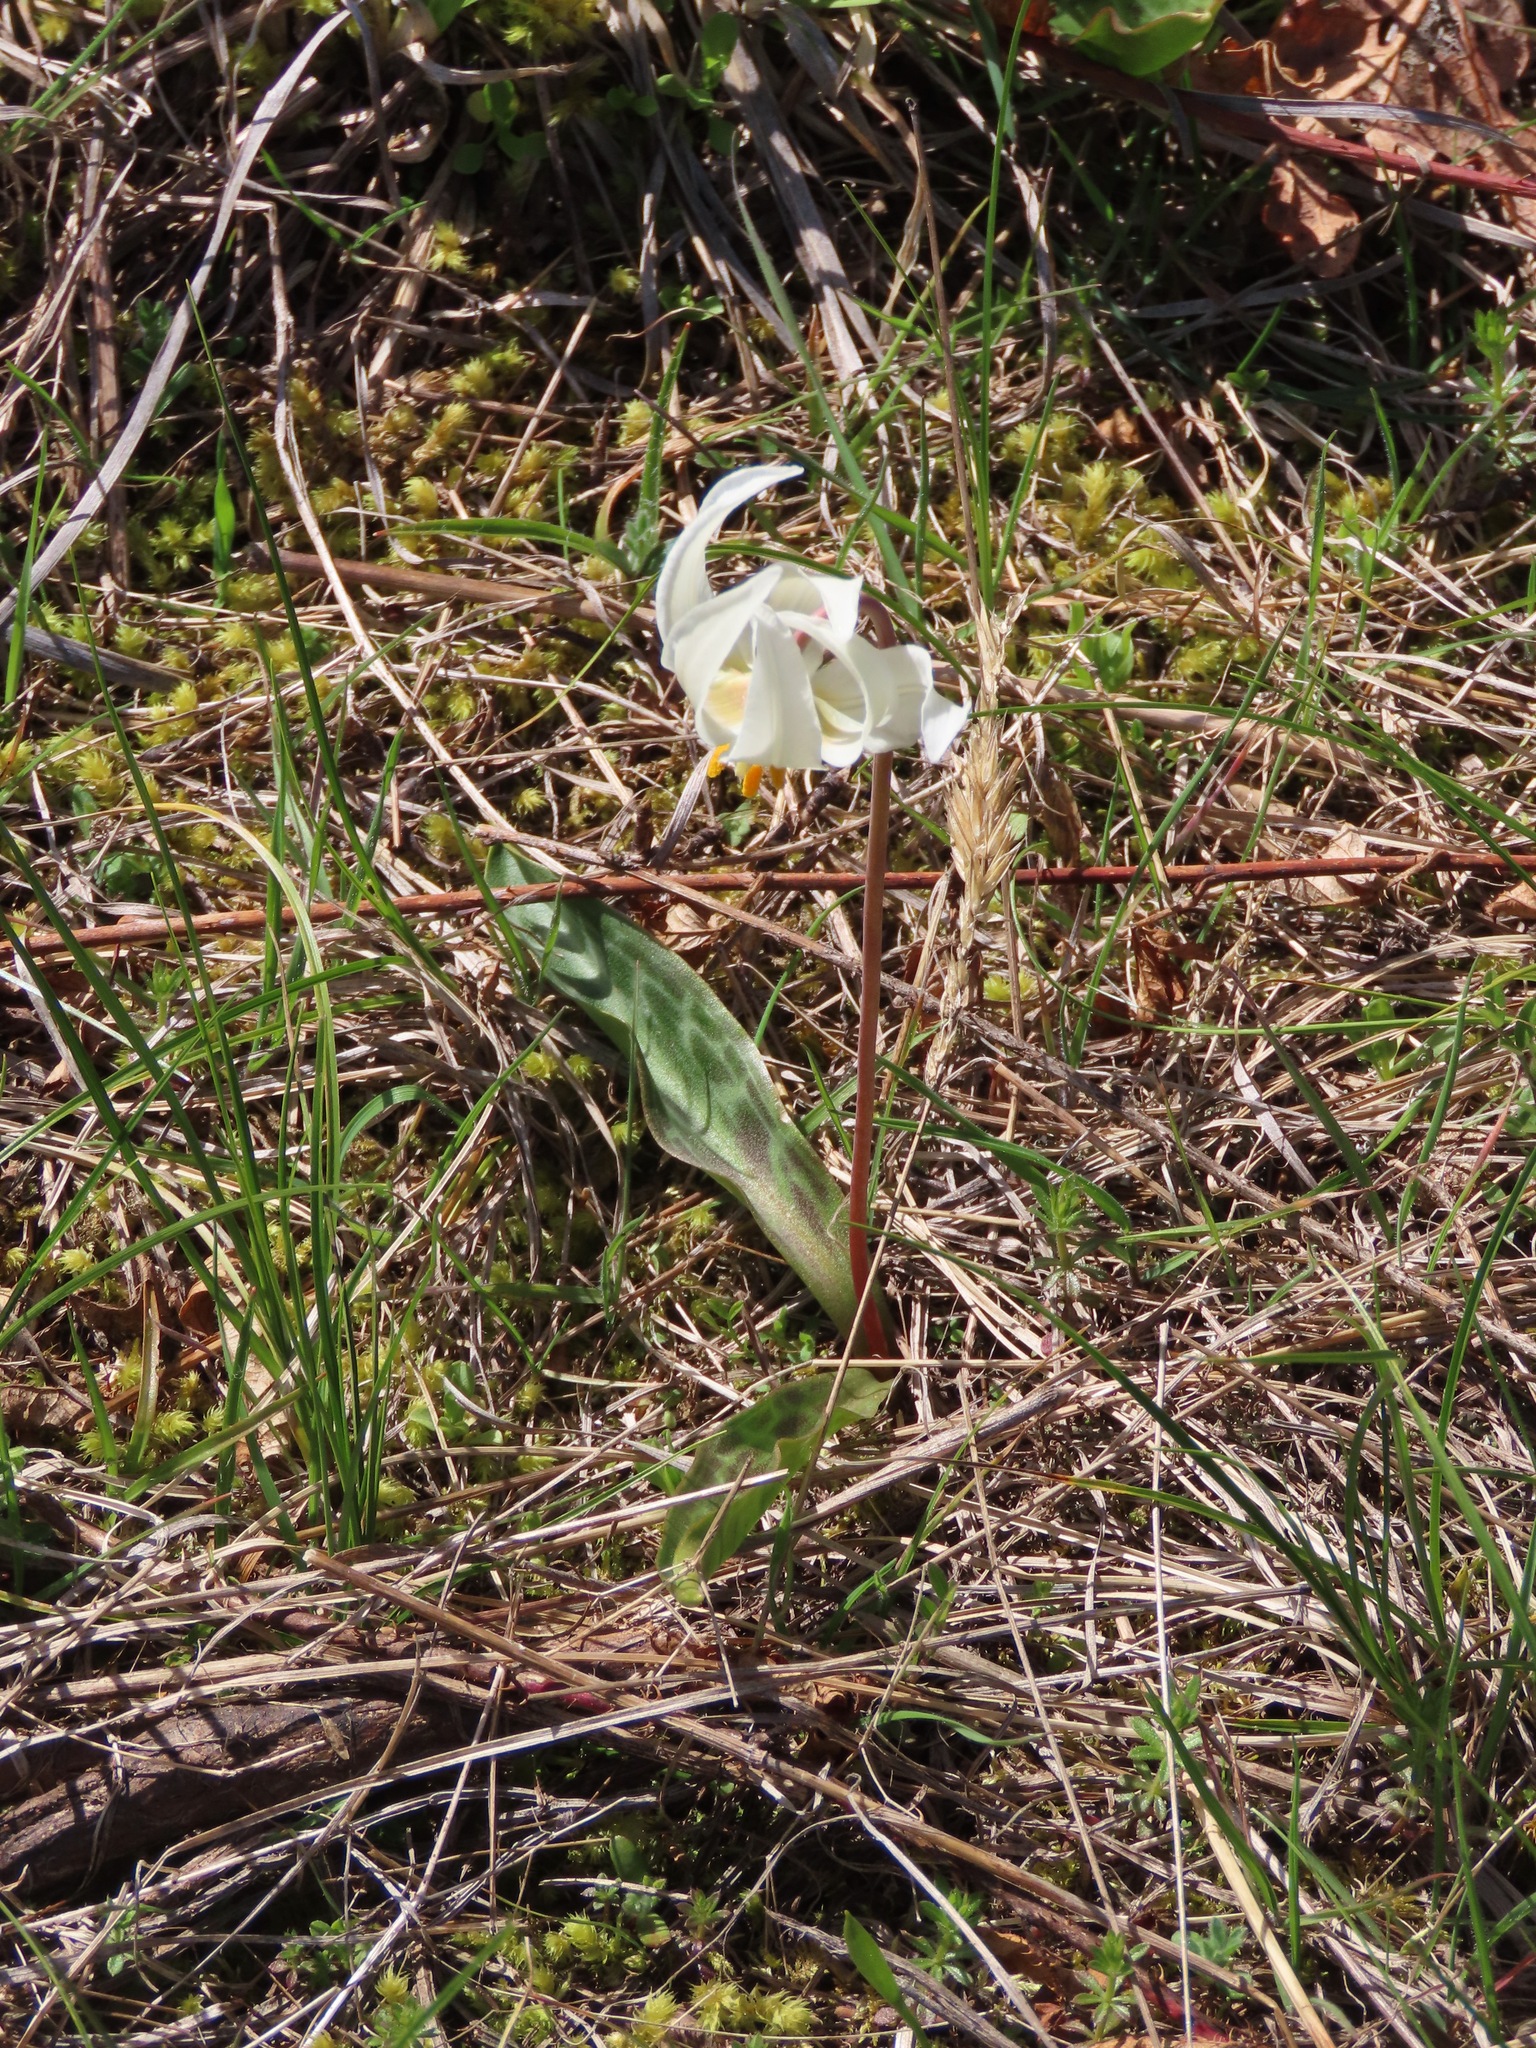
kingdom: Plantae
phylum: Tracheophyta
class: Liliopsida
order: Liliales
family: Liliaceae
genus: Erythronium
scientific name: Erythronium oregonum
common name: Giant adder's-tongue
